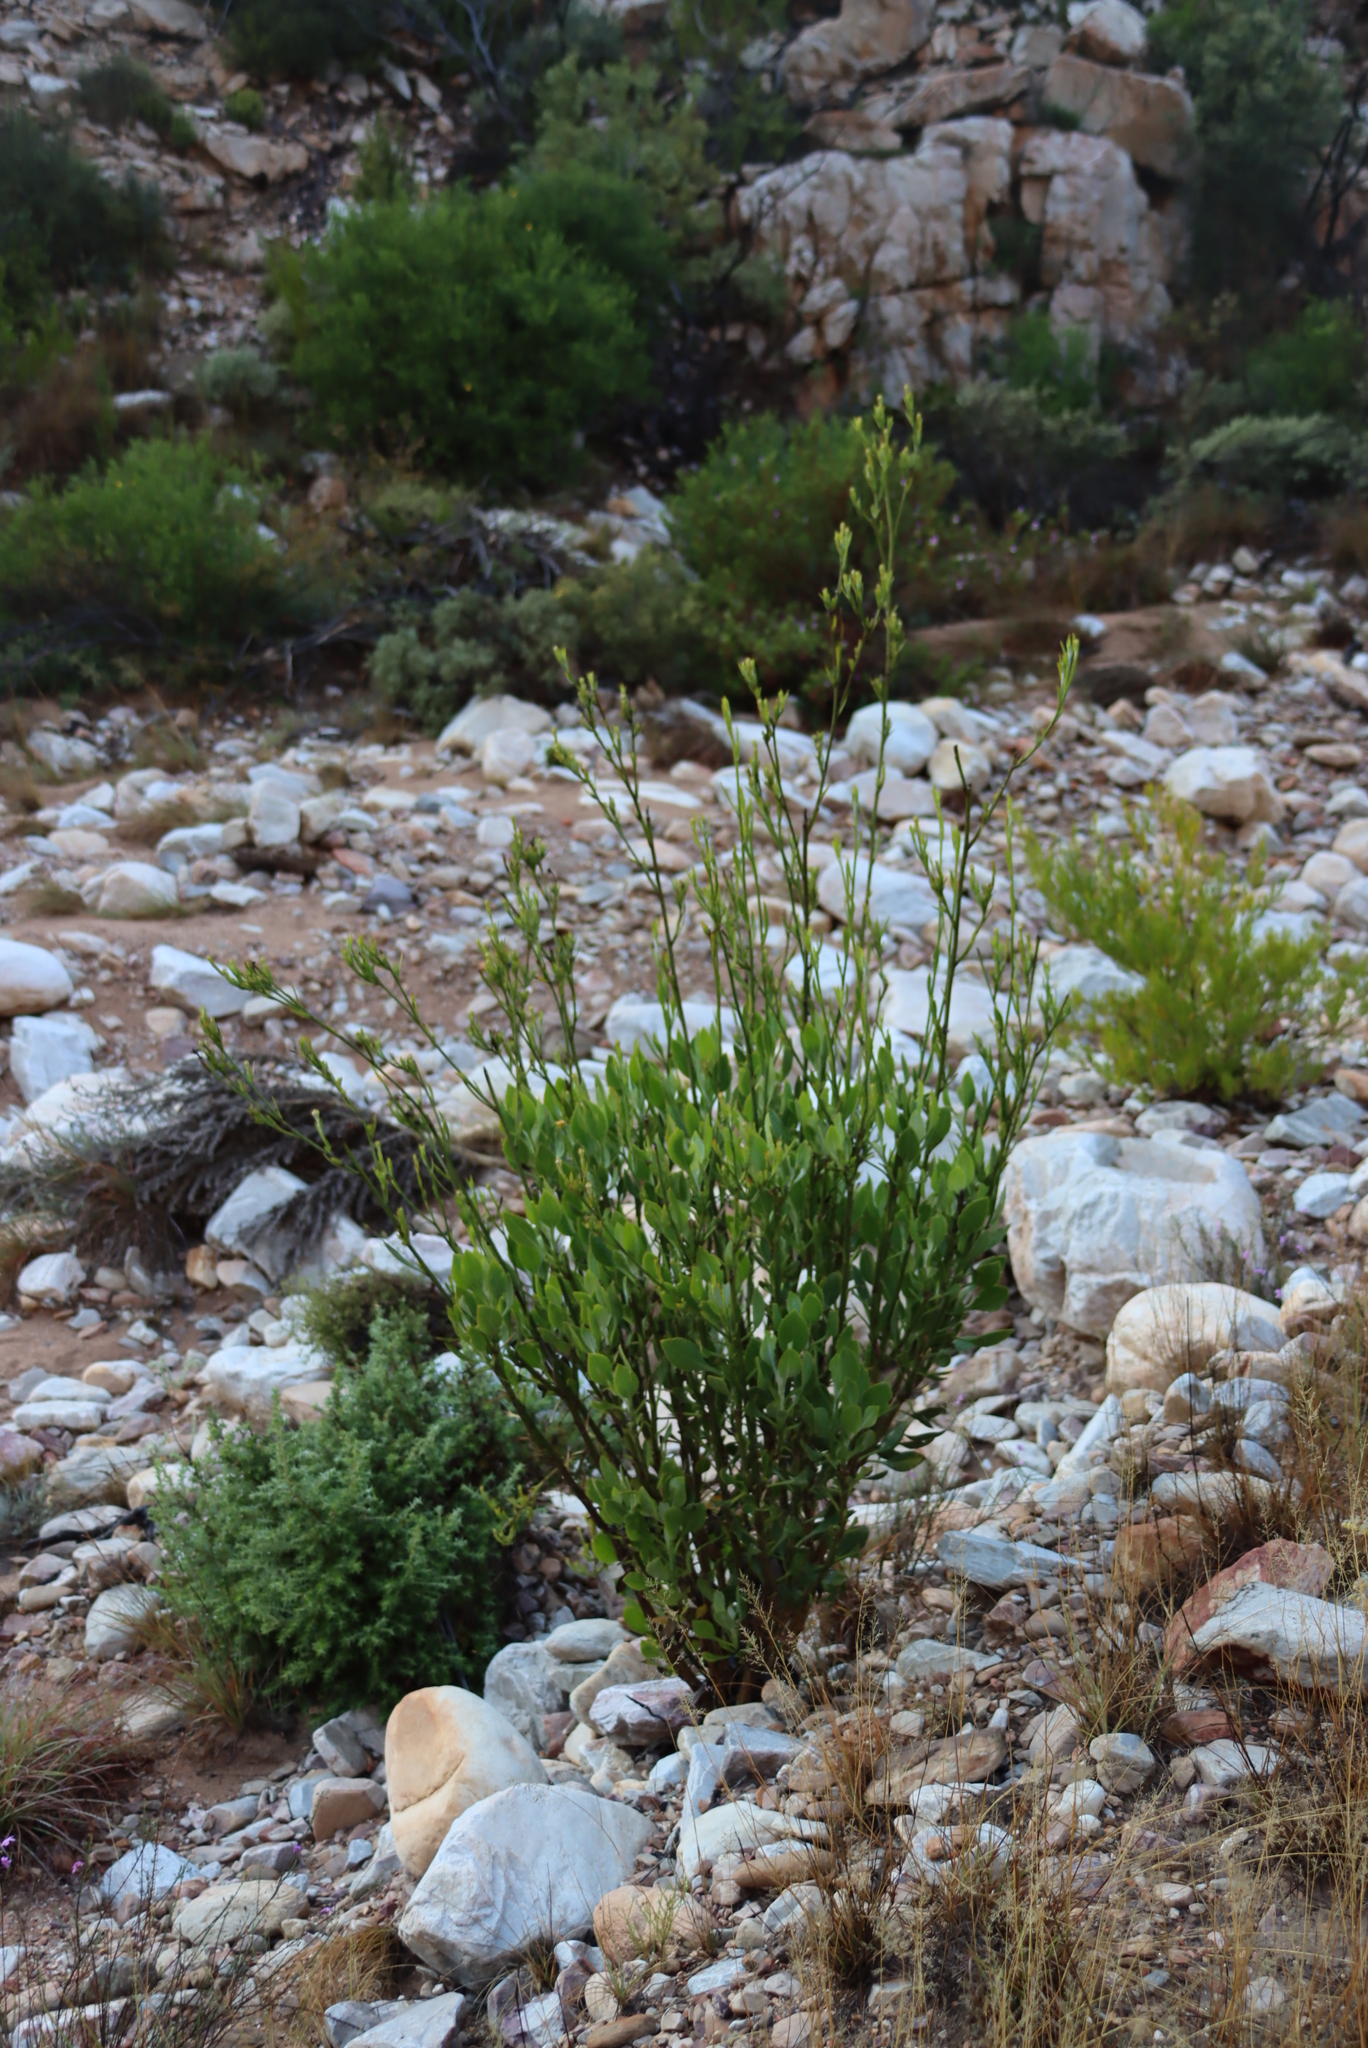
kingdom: Plantae
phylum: Tracheophyta
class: Magnoliopsida
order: Asterales
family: Asteraceae
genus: Osteospermum
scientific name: Osteospermum junceum
